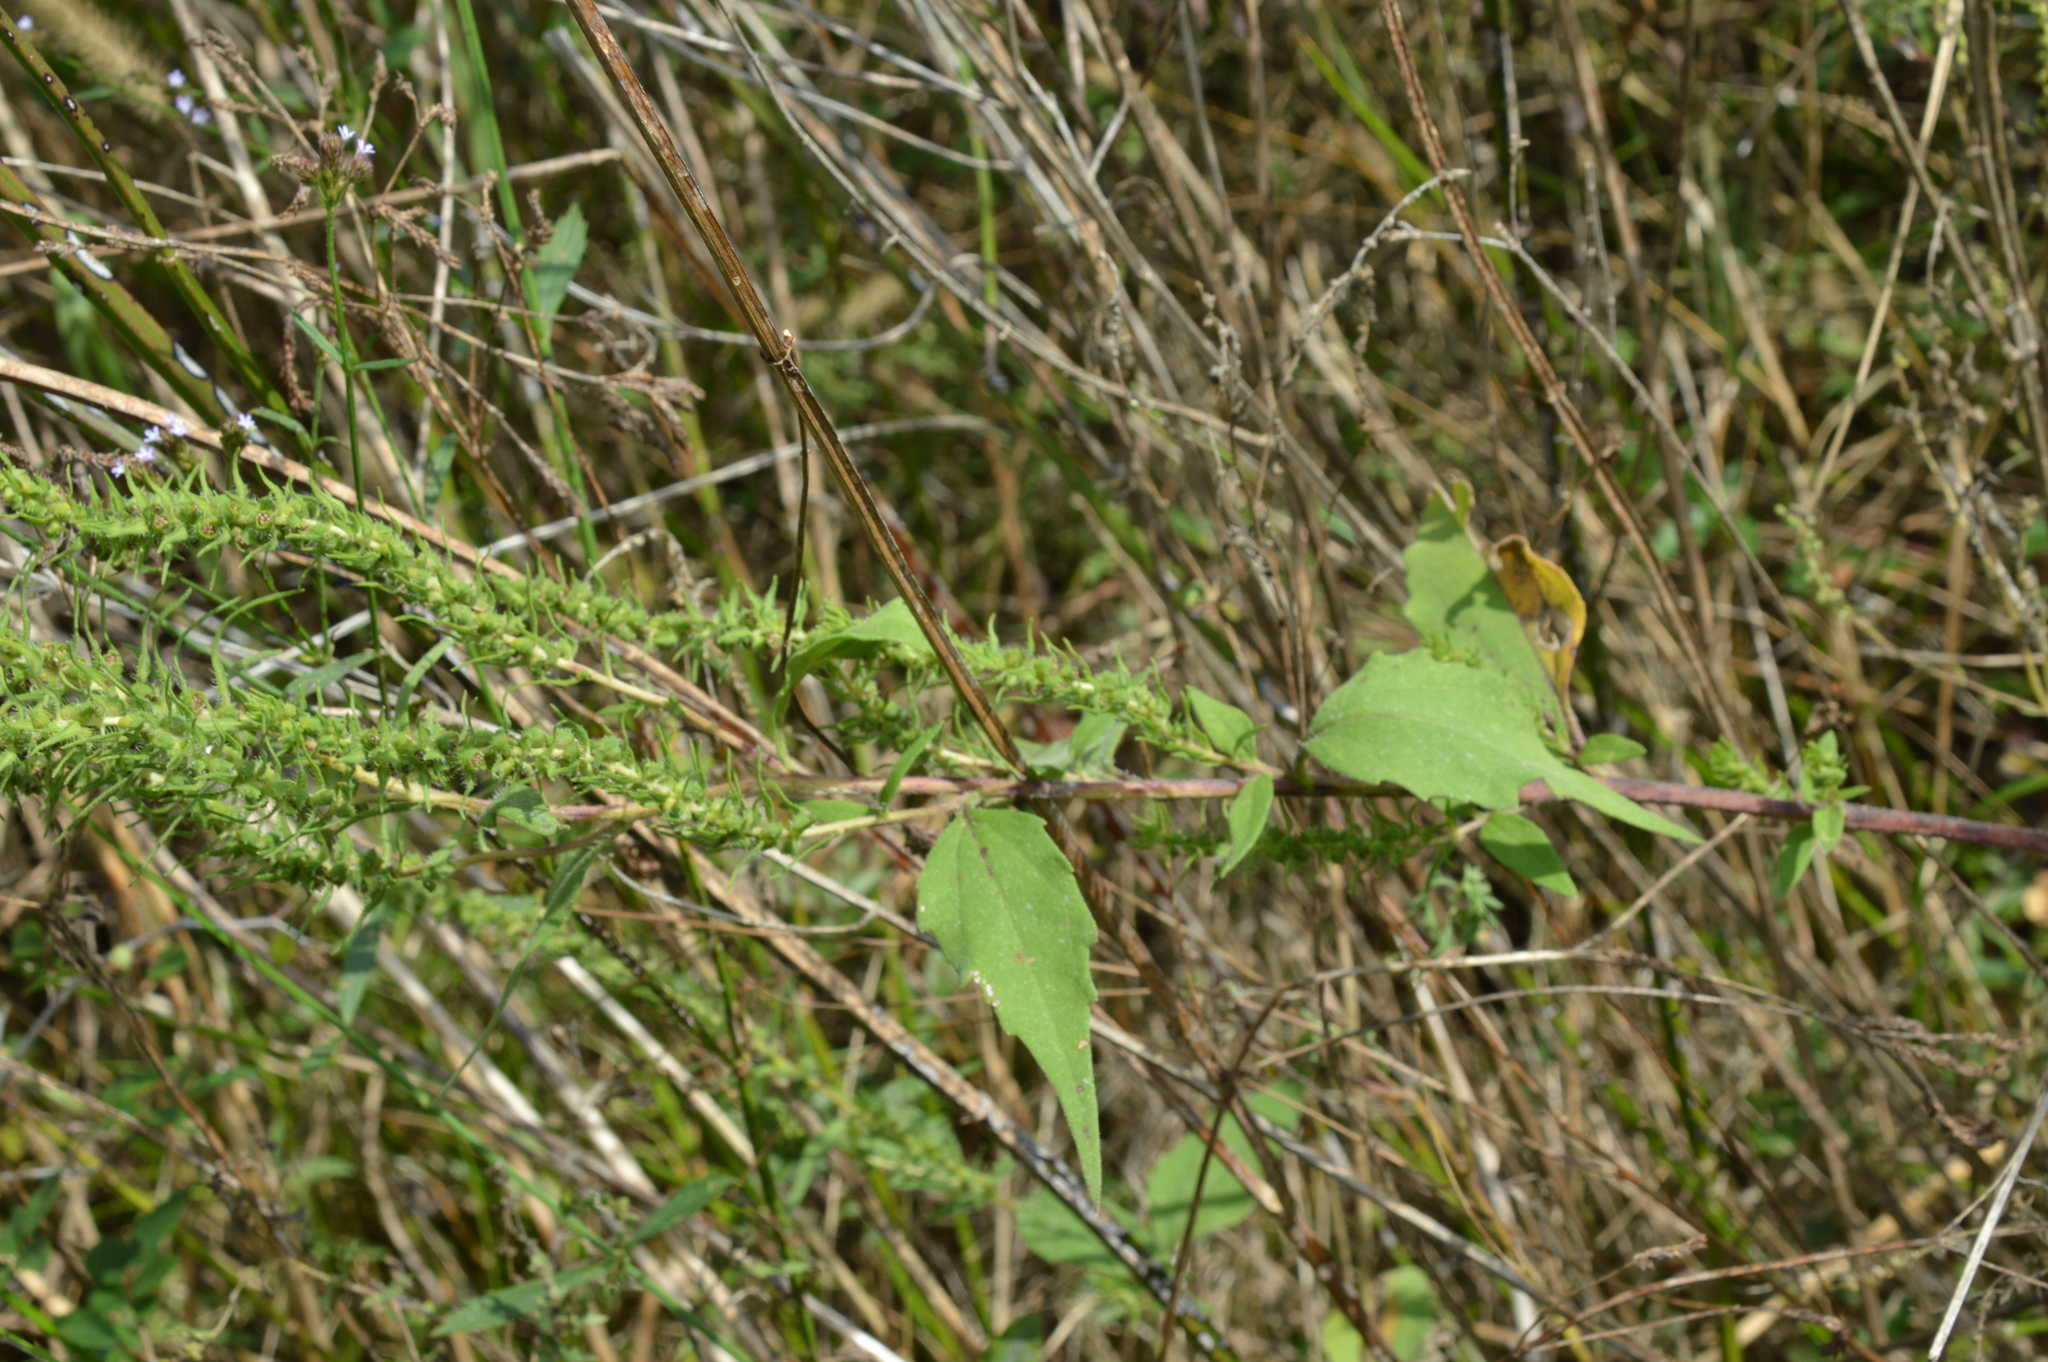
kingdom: Plantae
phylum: Tracheophyta
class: Magnoliopsida
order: Asterales
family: Asteraceae
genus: Iva
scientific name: Iva annua
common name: Marsh-elder
